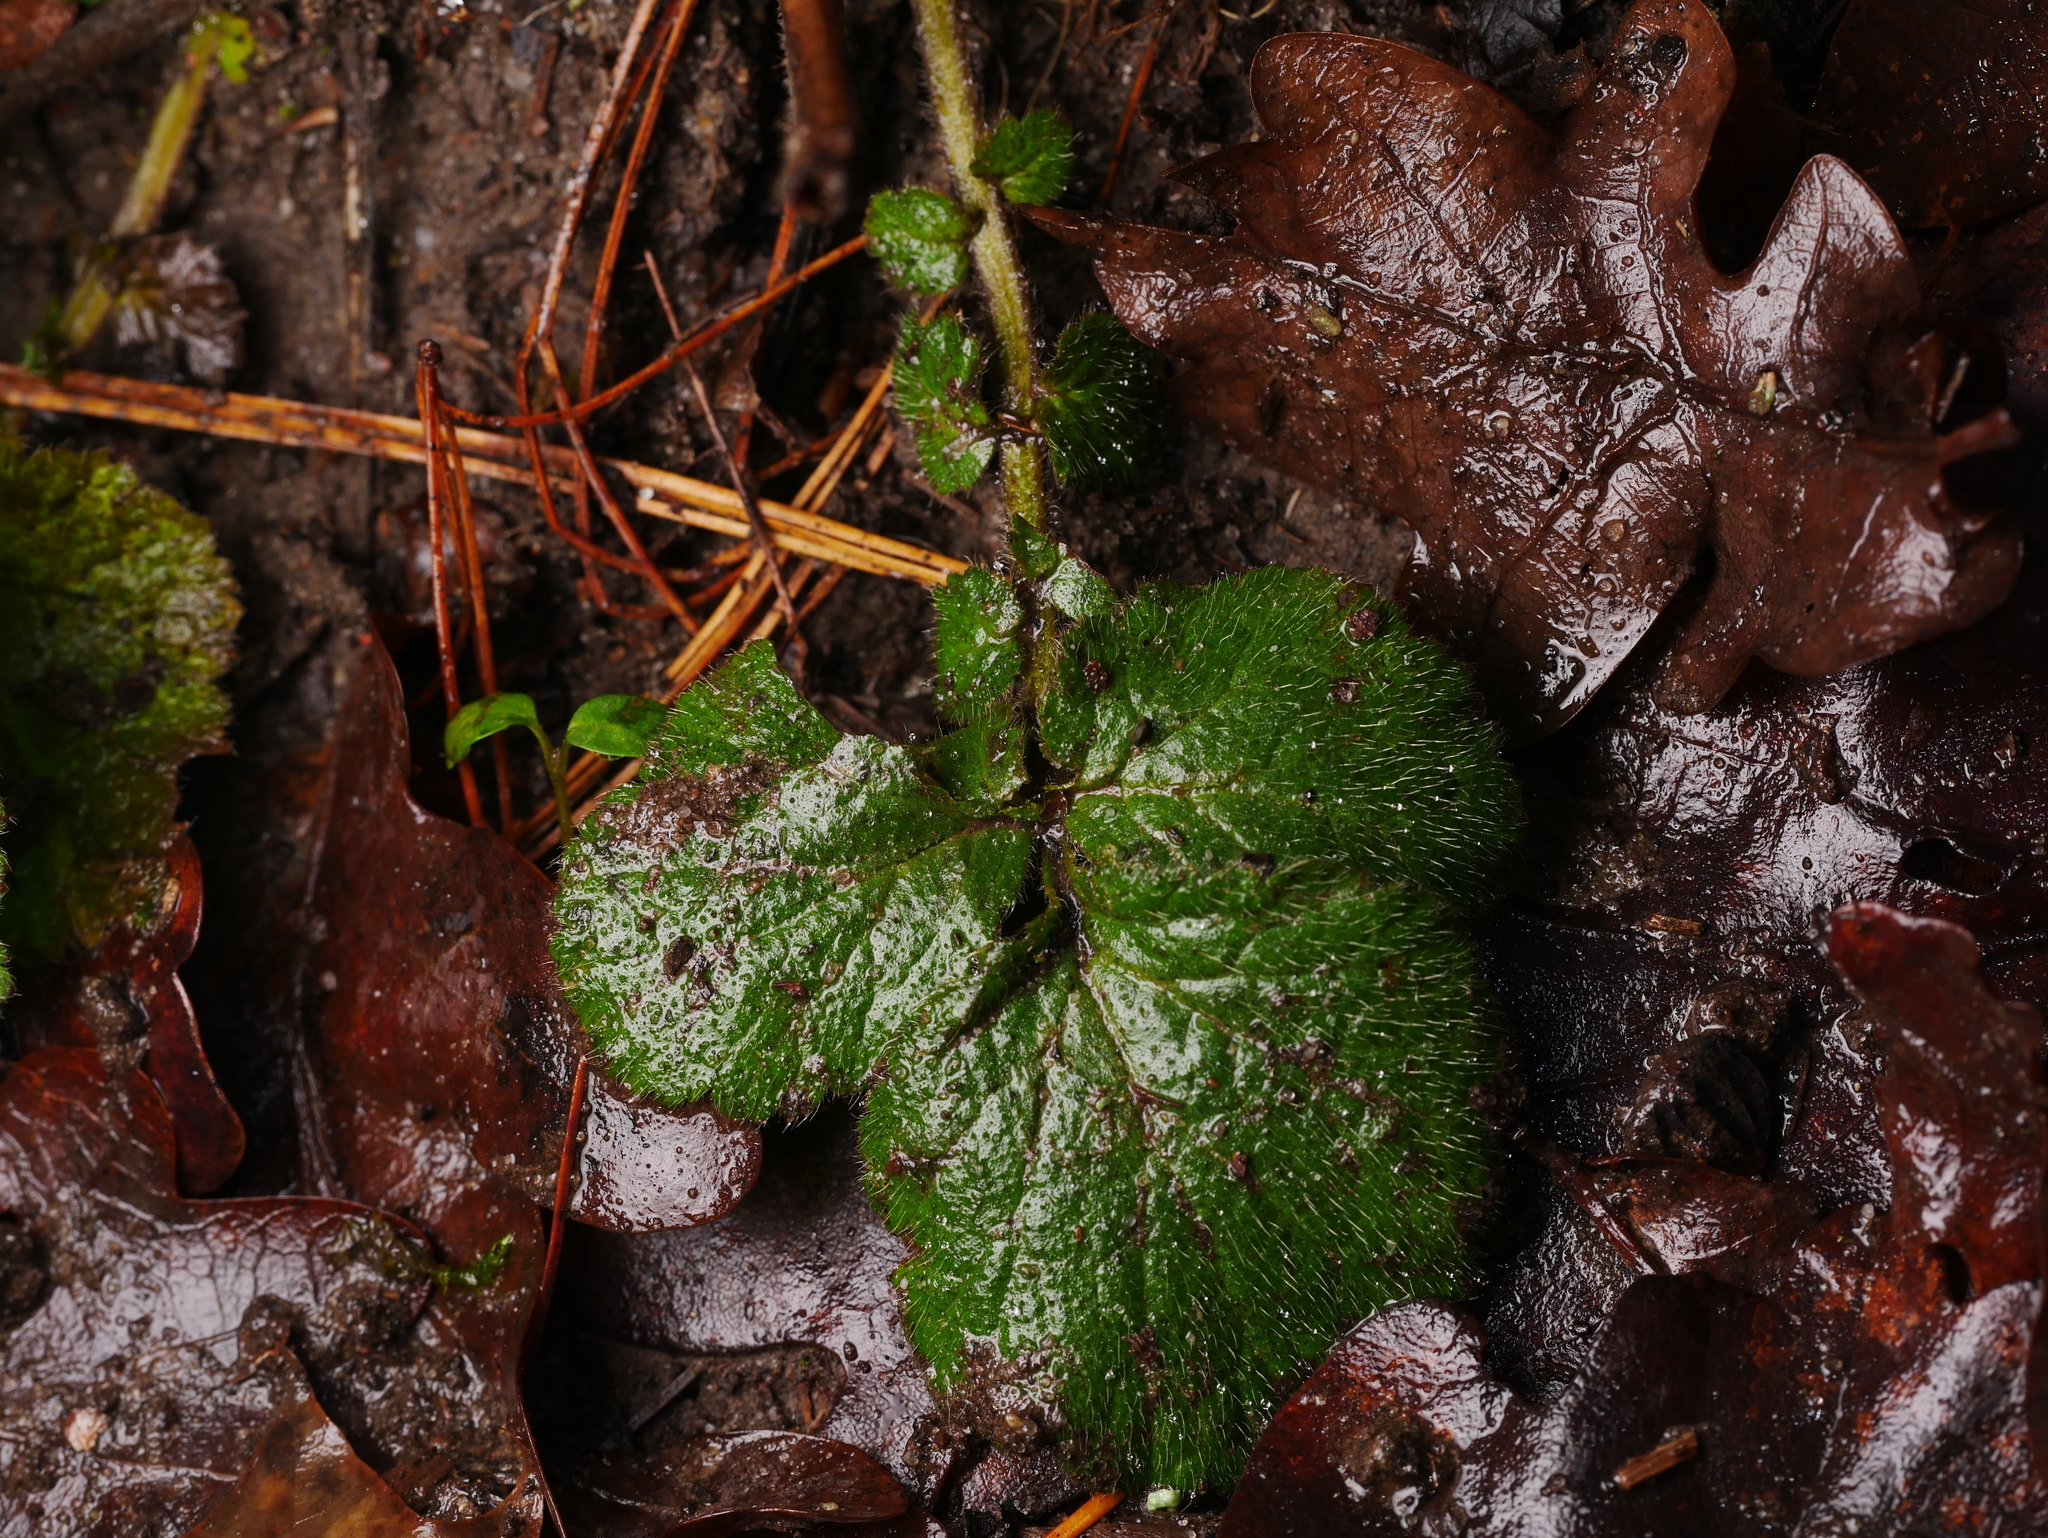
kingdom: Plantae
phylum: Tracheophyta
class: Magnoliopsida
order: Rosales
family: Rosaceae
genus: Geum
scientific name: Geum urbanum
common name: Wood avens
